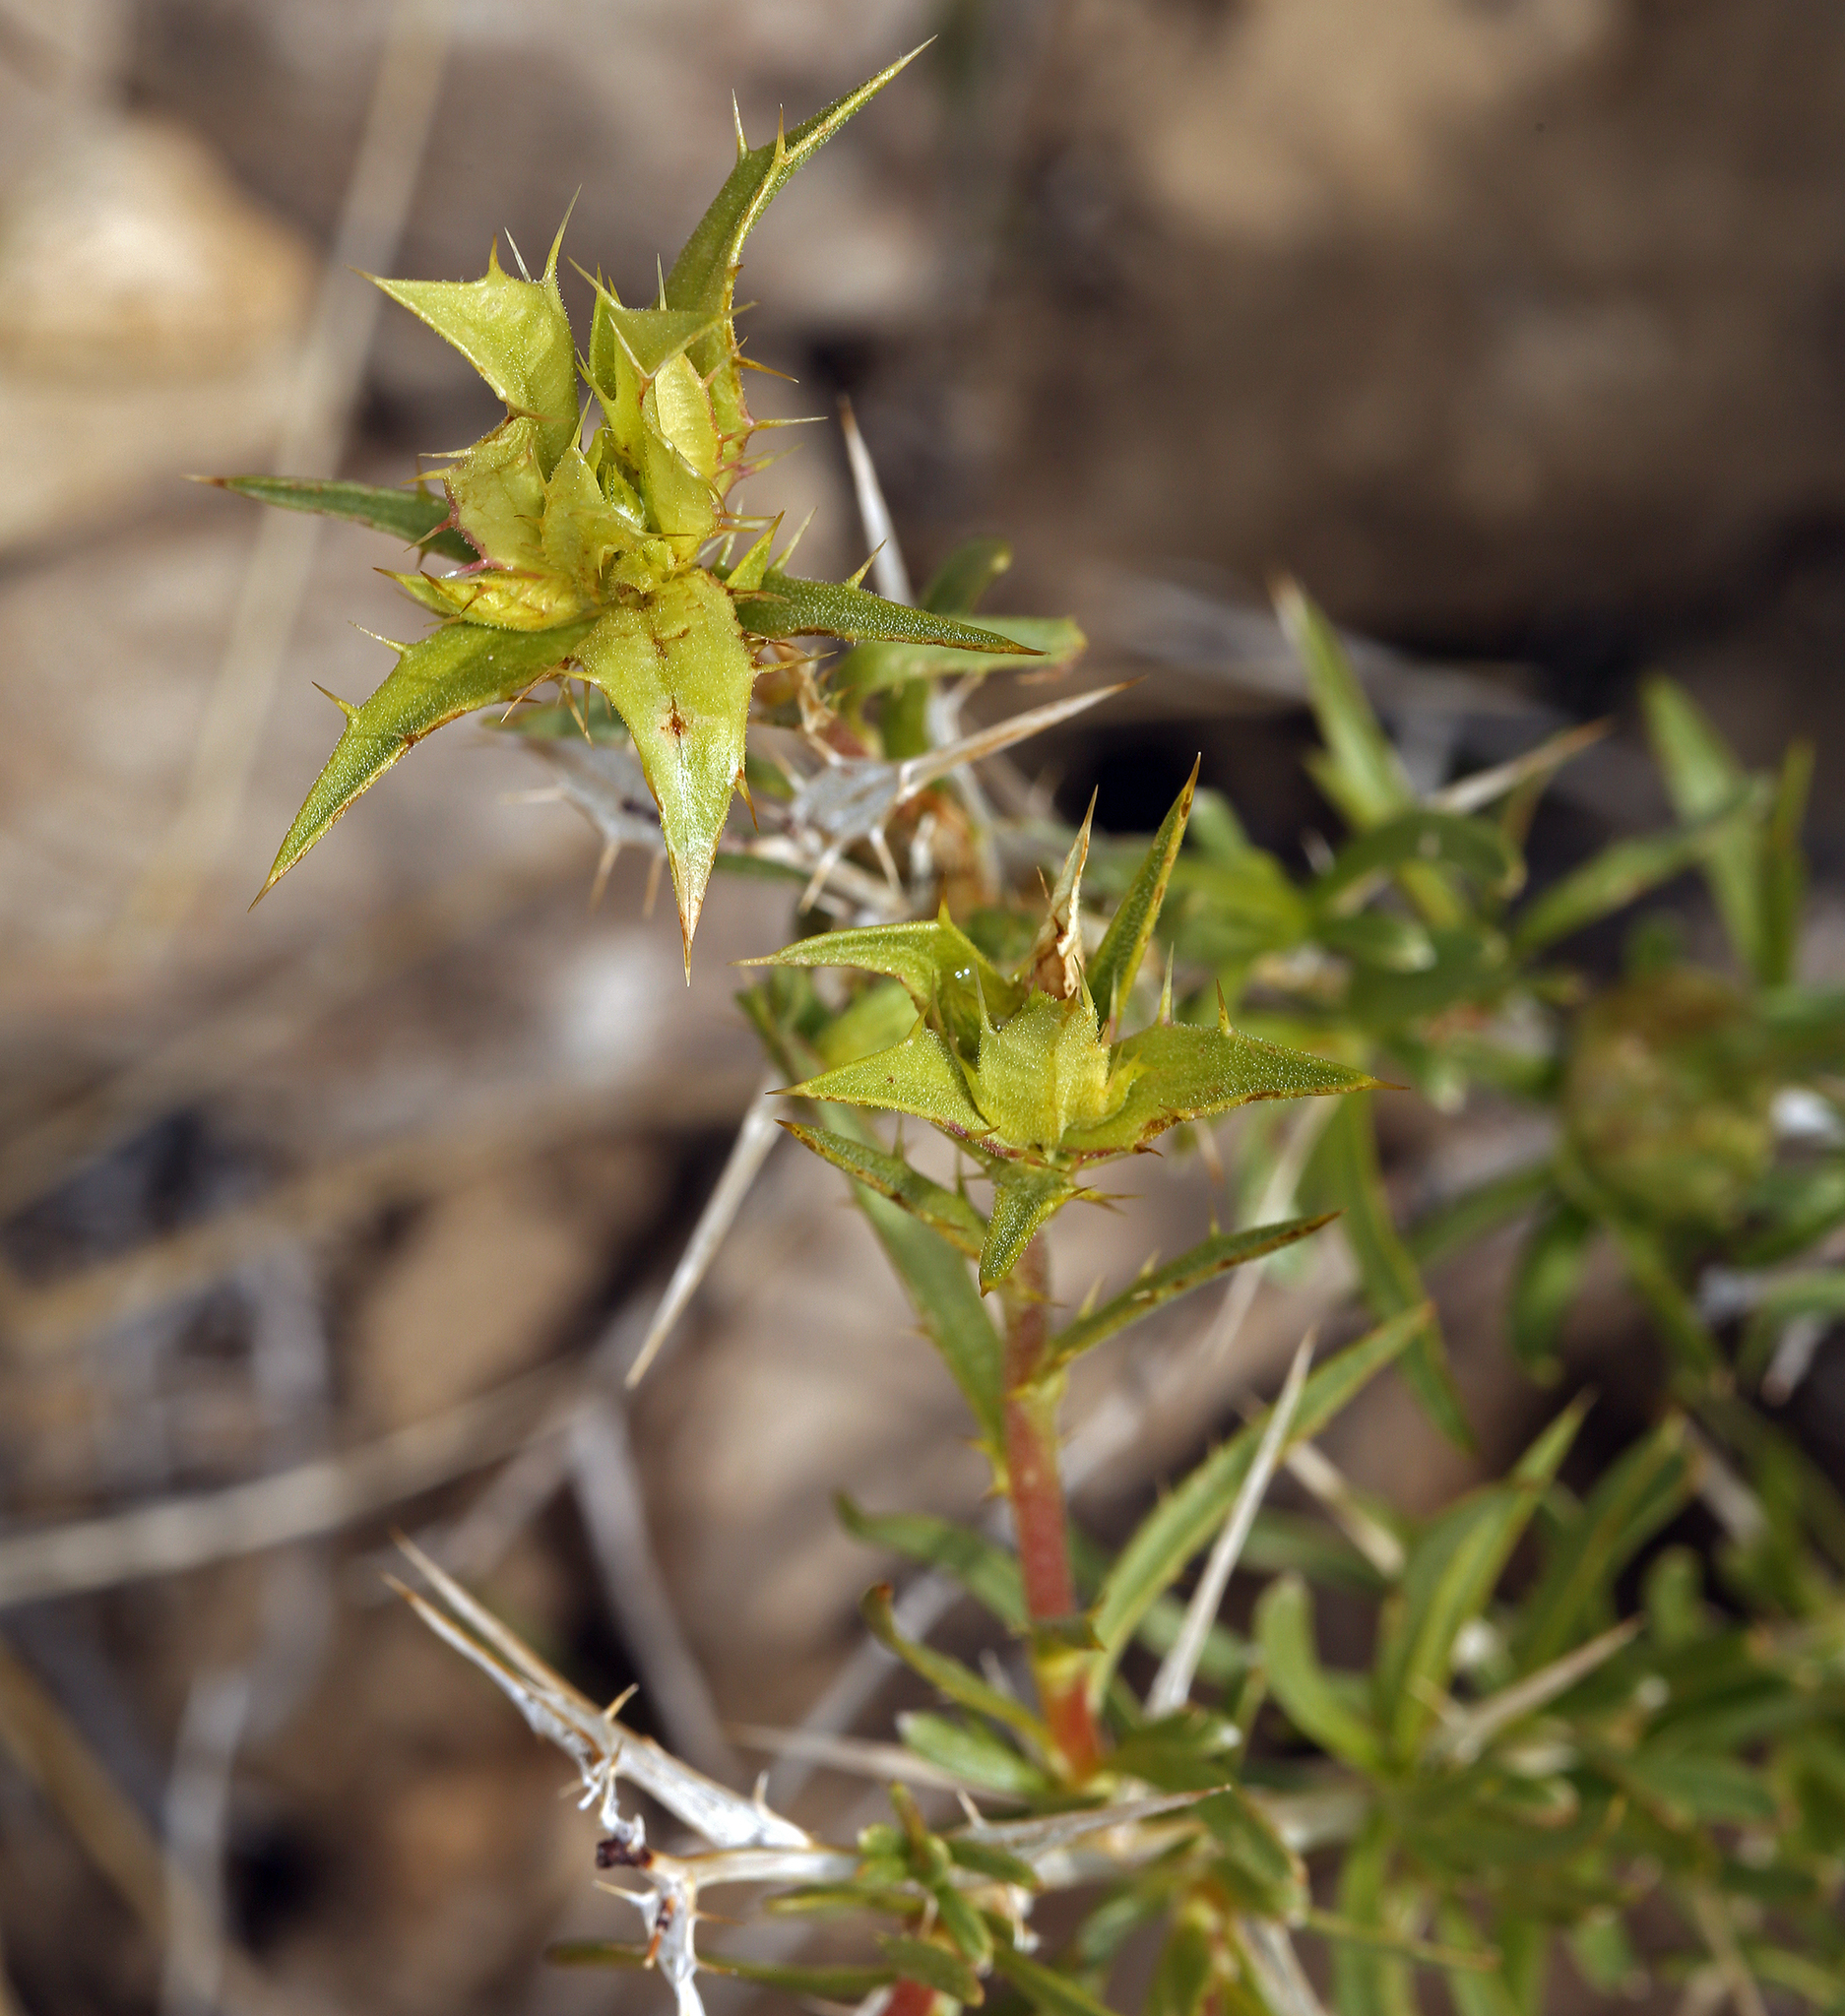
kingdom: Plantae
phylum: Tracheophyta
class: Magnoliopsida
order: Asterales
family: Asteraceae
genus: Hecastocleis
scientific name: Hecastocleis shockleyi
